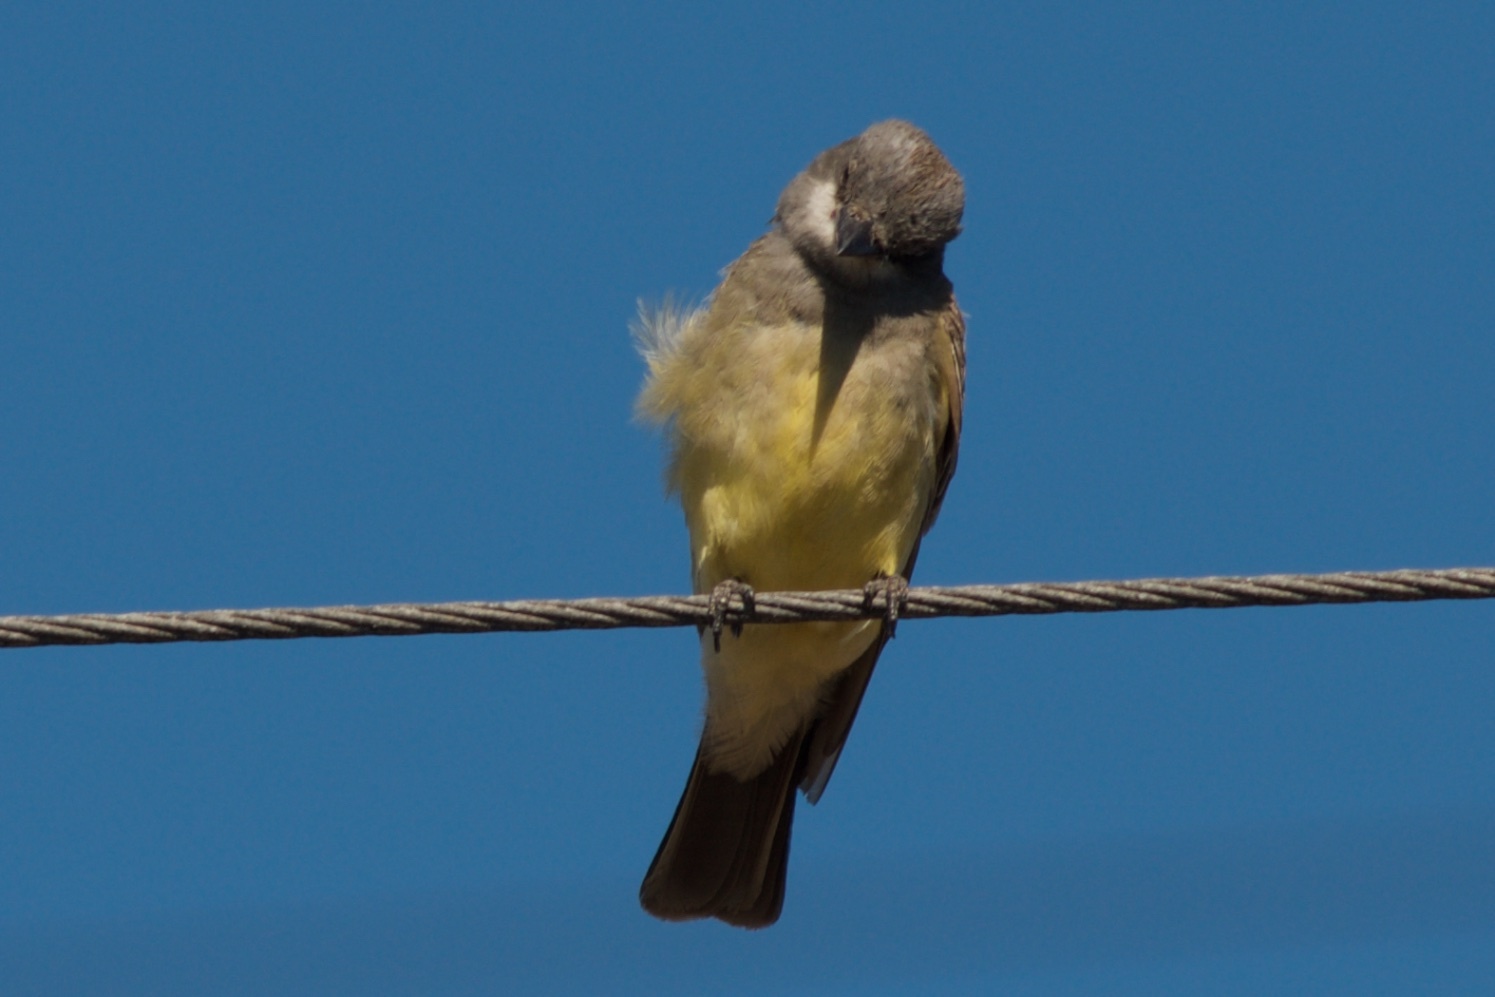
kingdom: Animalia
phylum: Chordata
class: Aves
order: Passeriformes
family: Tyrannidae
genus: Tyrannus
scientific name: Tyrannus vociferans
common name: Cassin's kingbird
